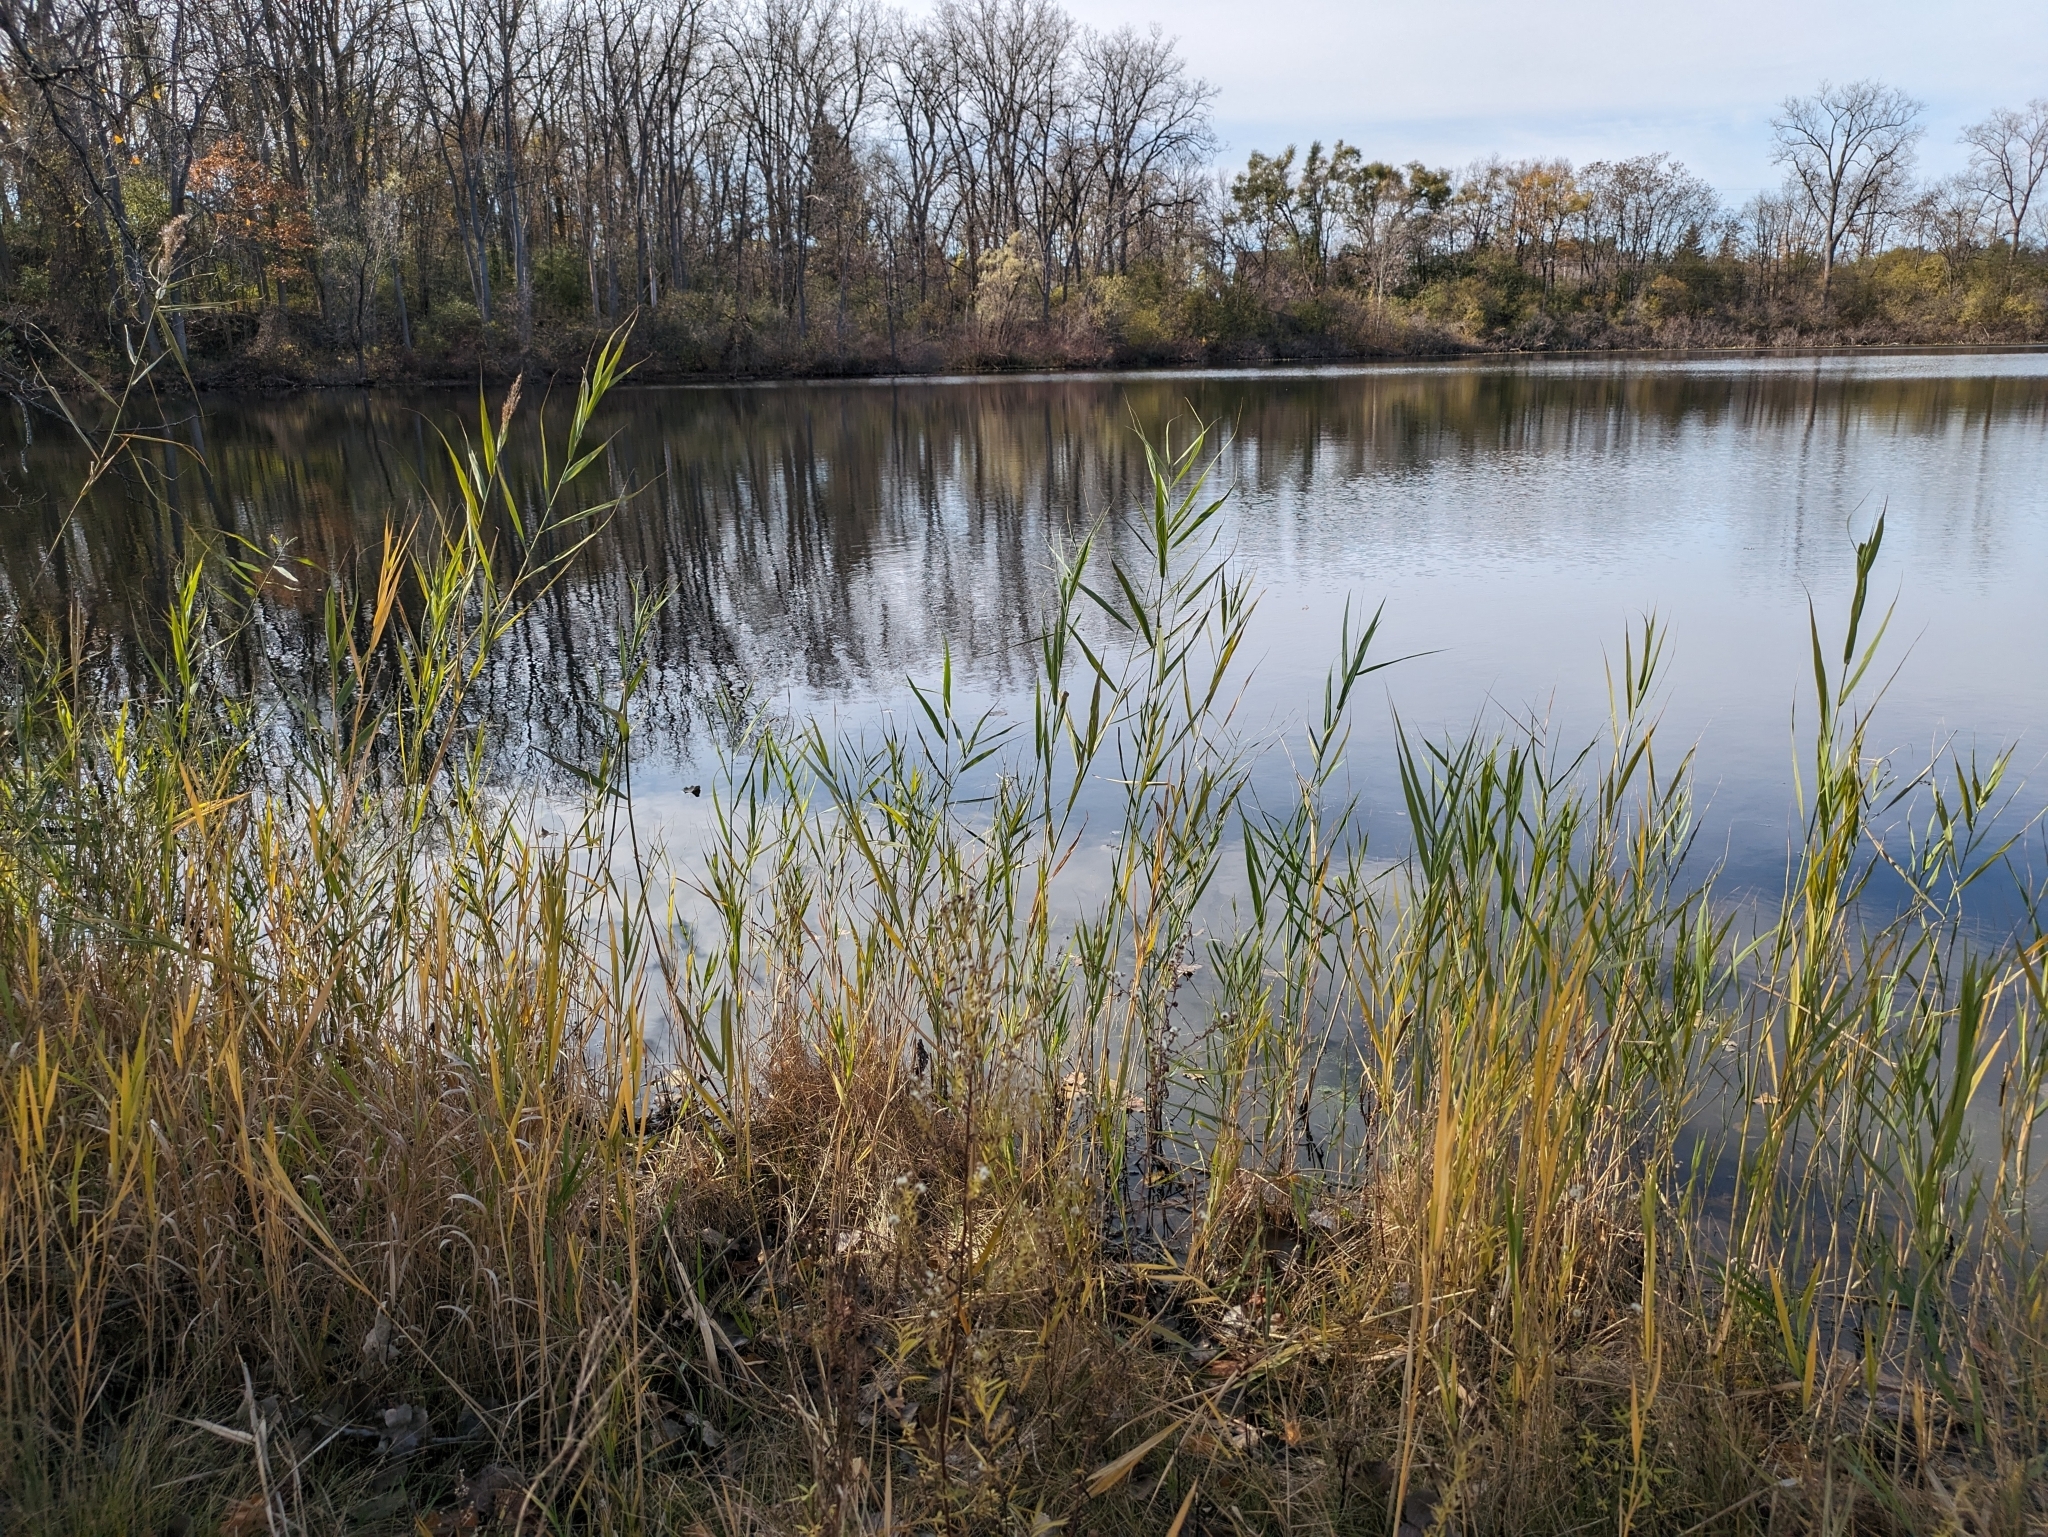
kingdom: Plantae
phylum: Tracheophyta
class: Liliopsida
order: Poales
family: Poaceae
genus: Phragmites
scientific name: Phragmites australis
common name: Common reed
